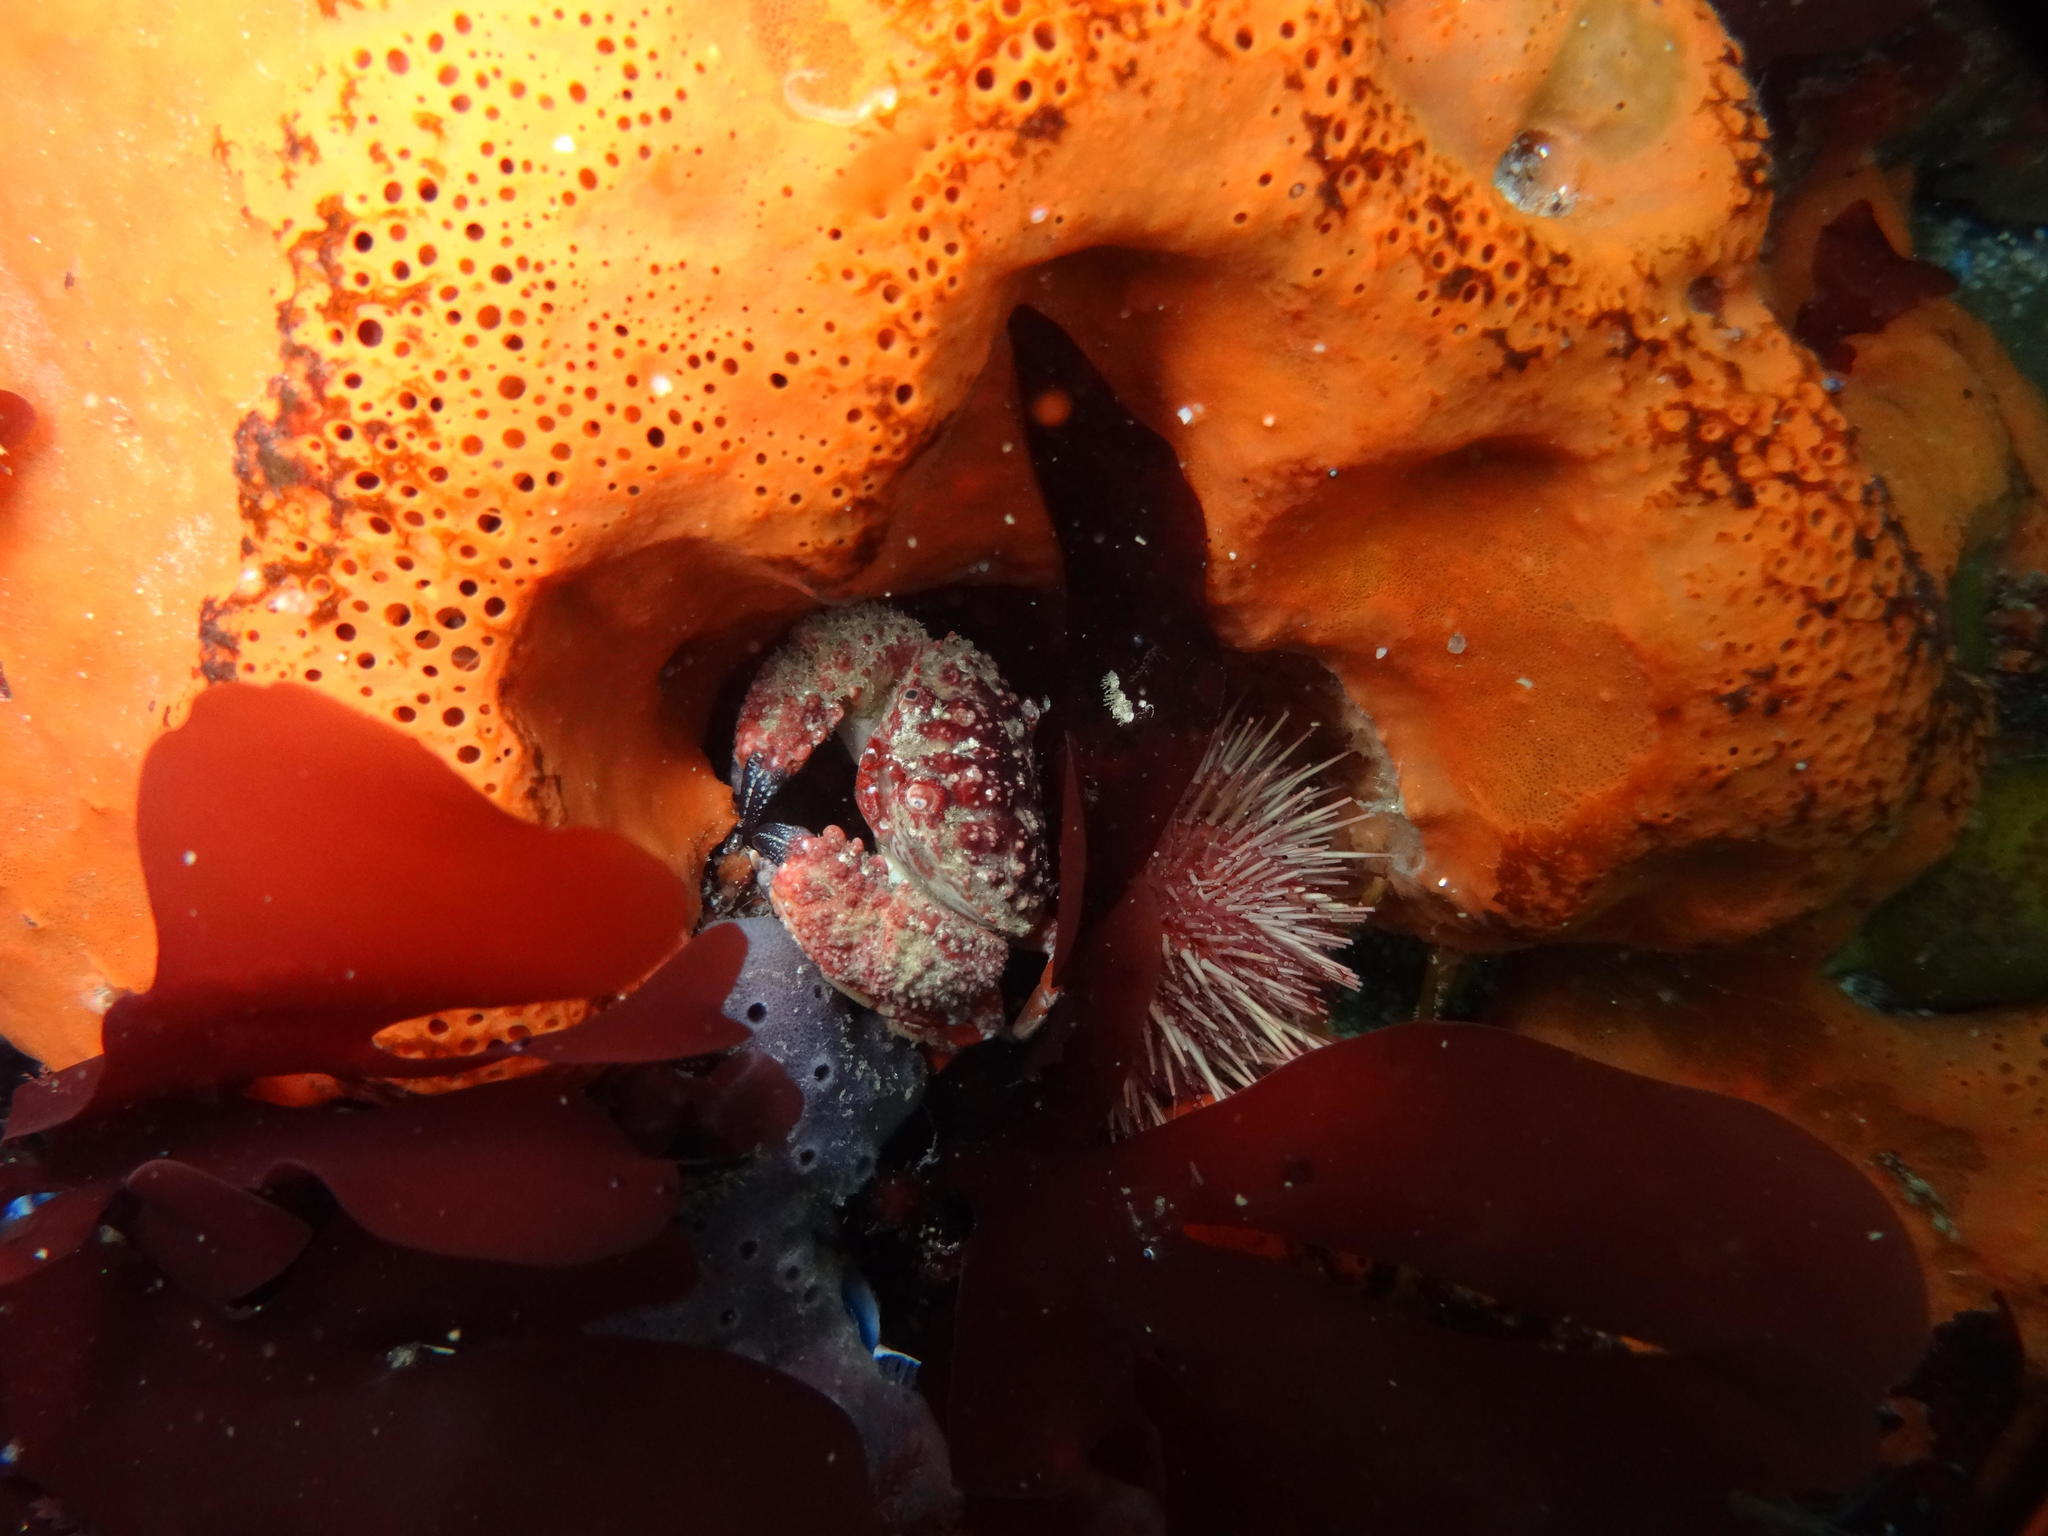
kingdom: Animalia
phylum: Arthropoda
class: Malacostraca
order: Decapoda
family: Pilumnoididae
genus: Pilumnoides
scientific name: Pilumnoides rubus
